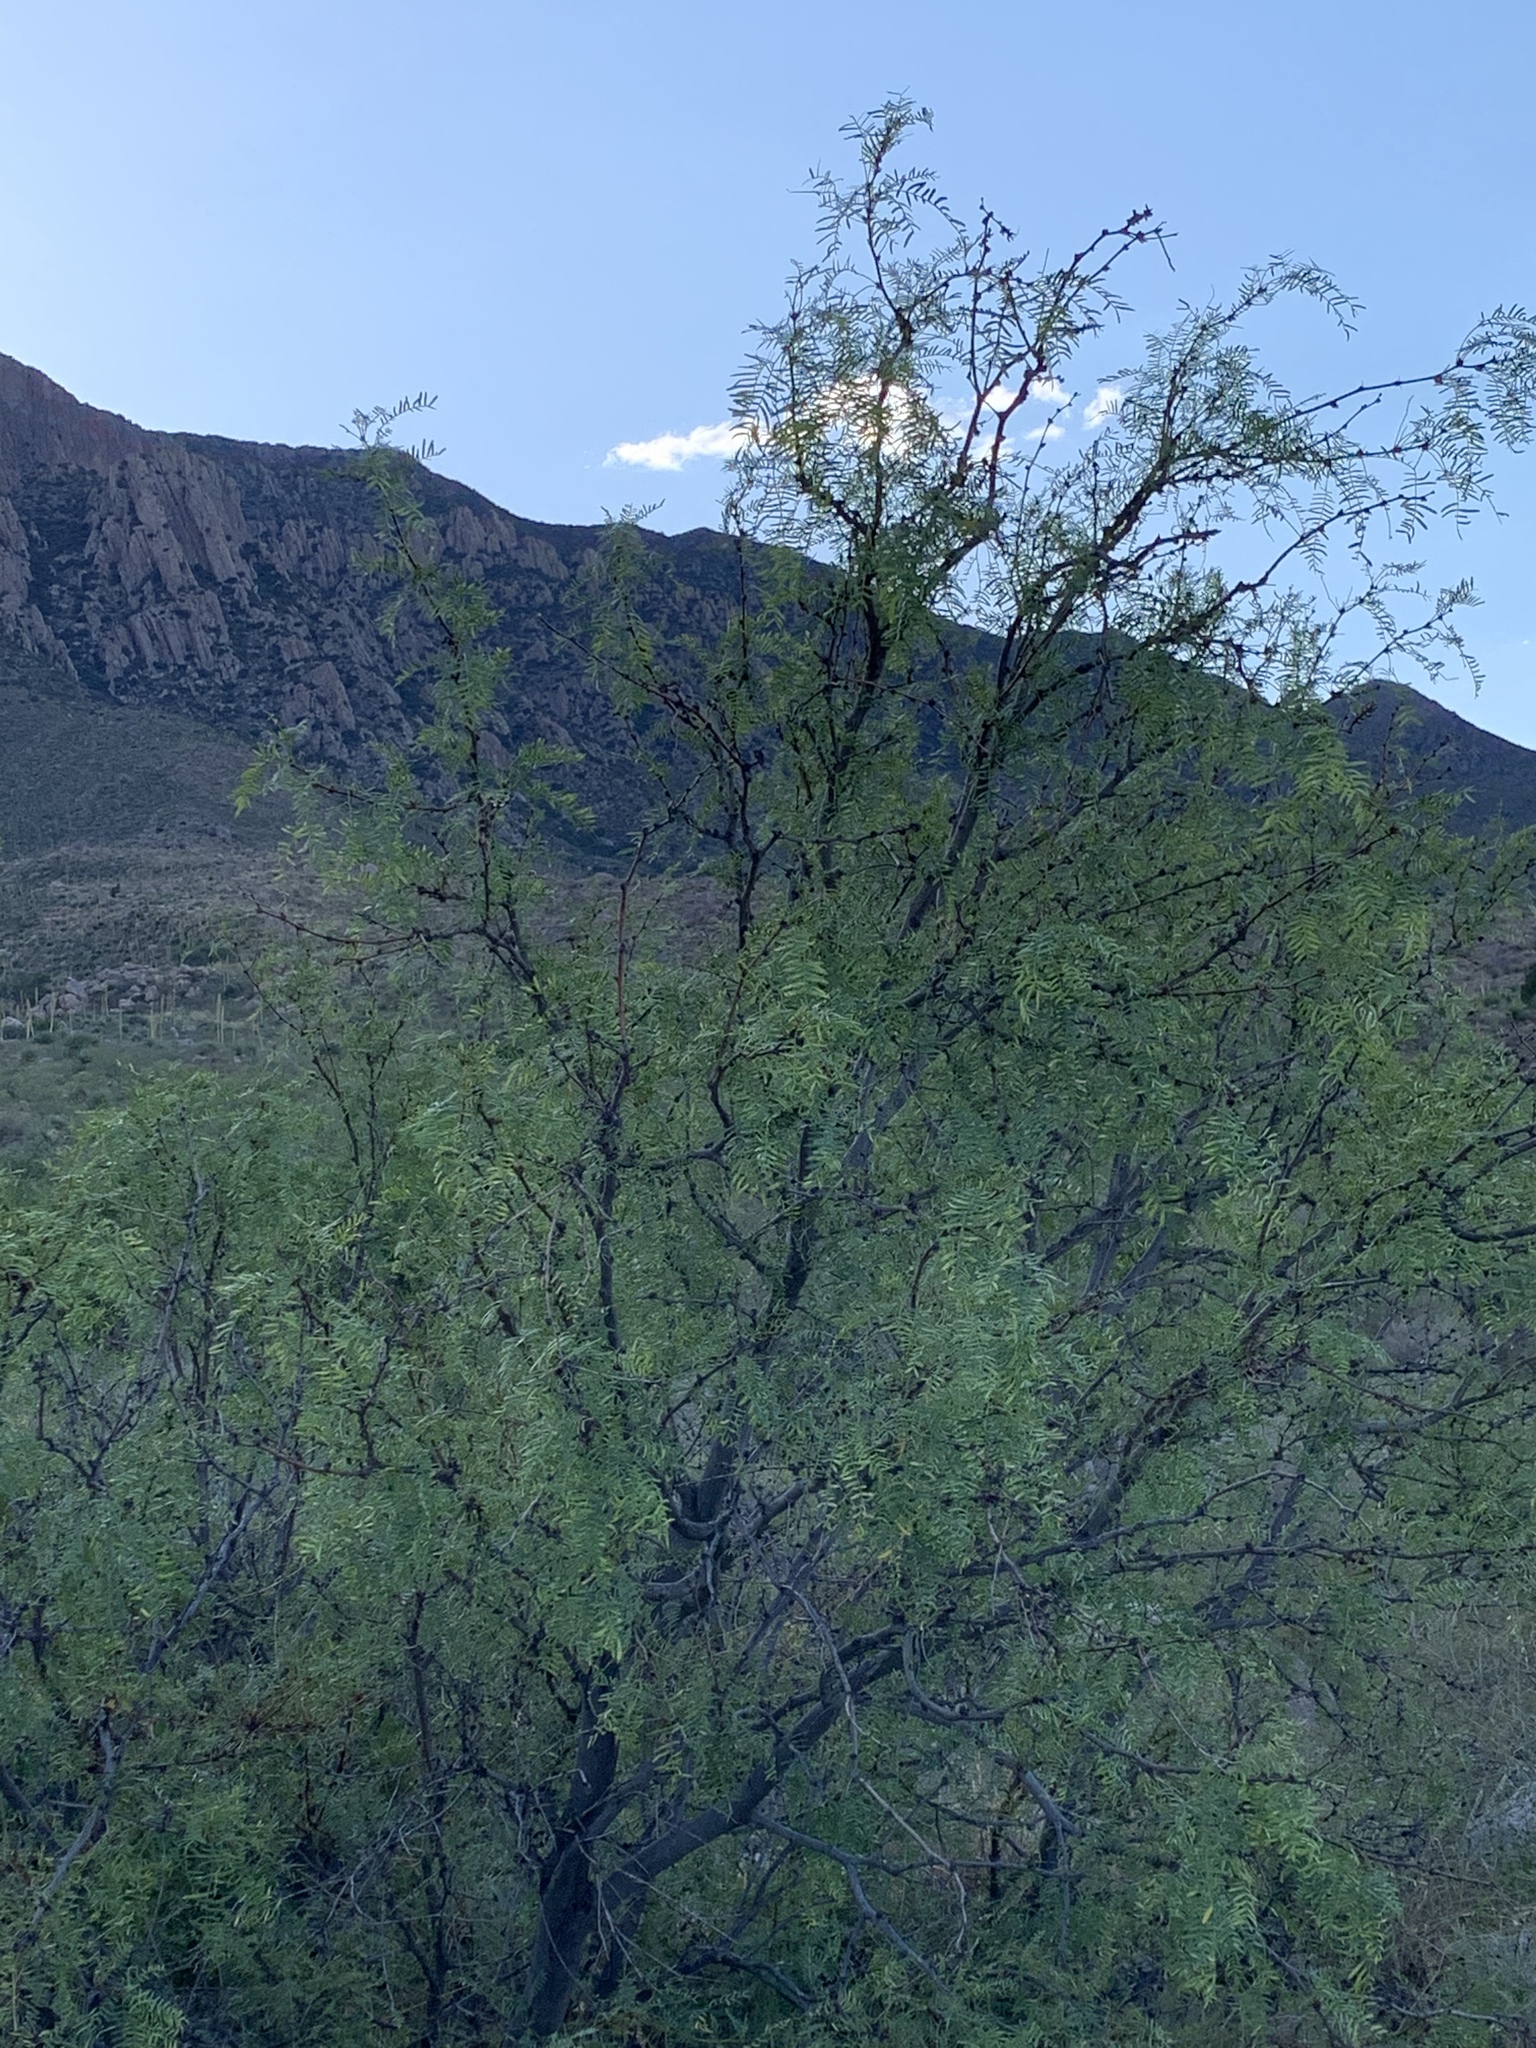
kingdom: Plantae
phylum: Tracheophyta
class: Magnoliopsida
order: Fabales
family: Fabaceae
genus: Prosopis
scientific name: Prosopis glandulosa
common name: Honey mesquite
